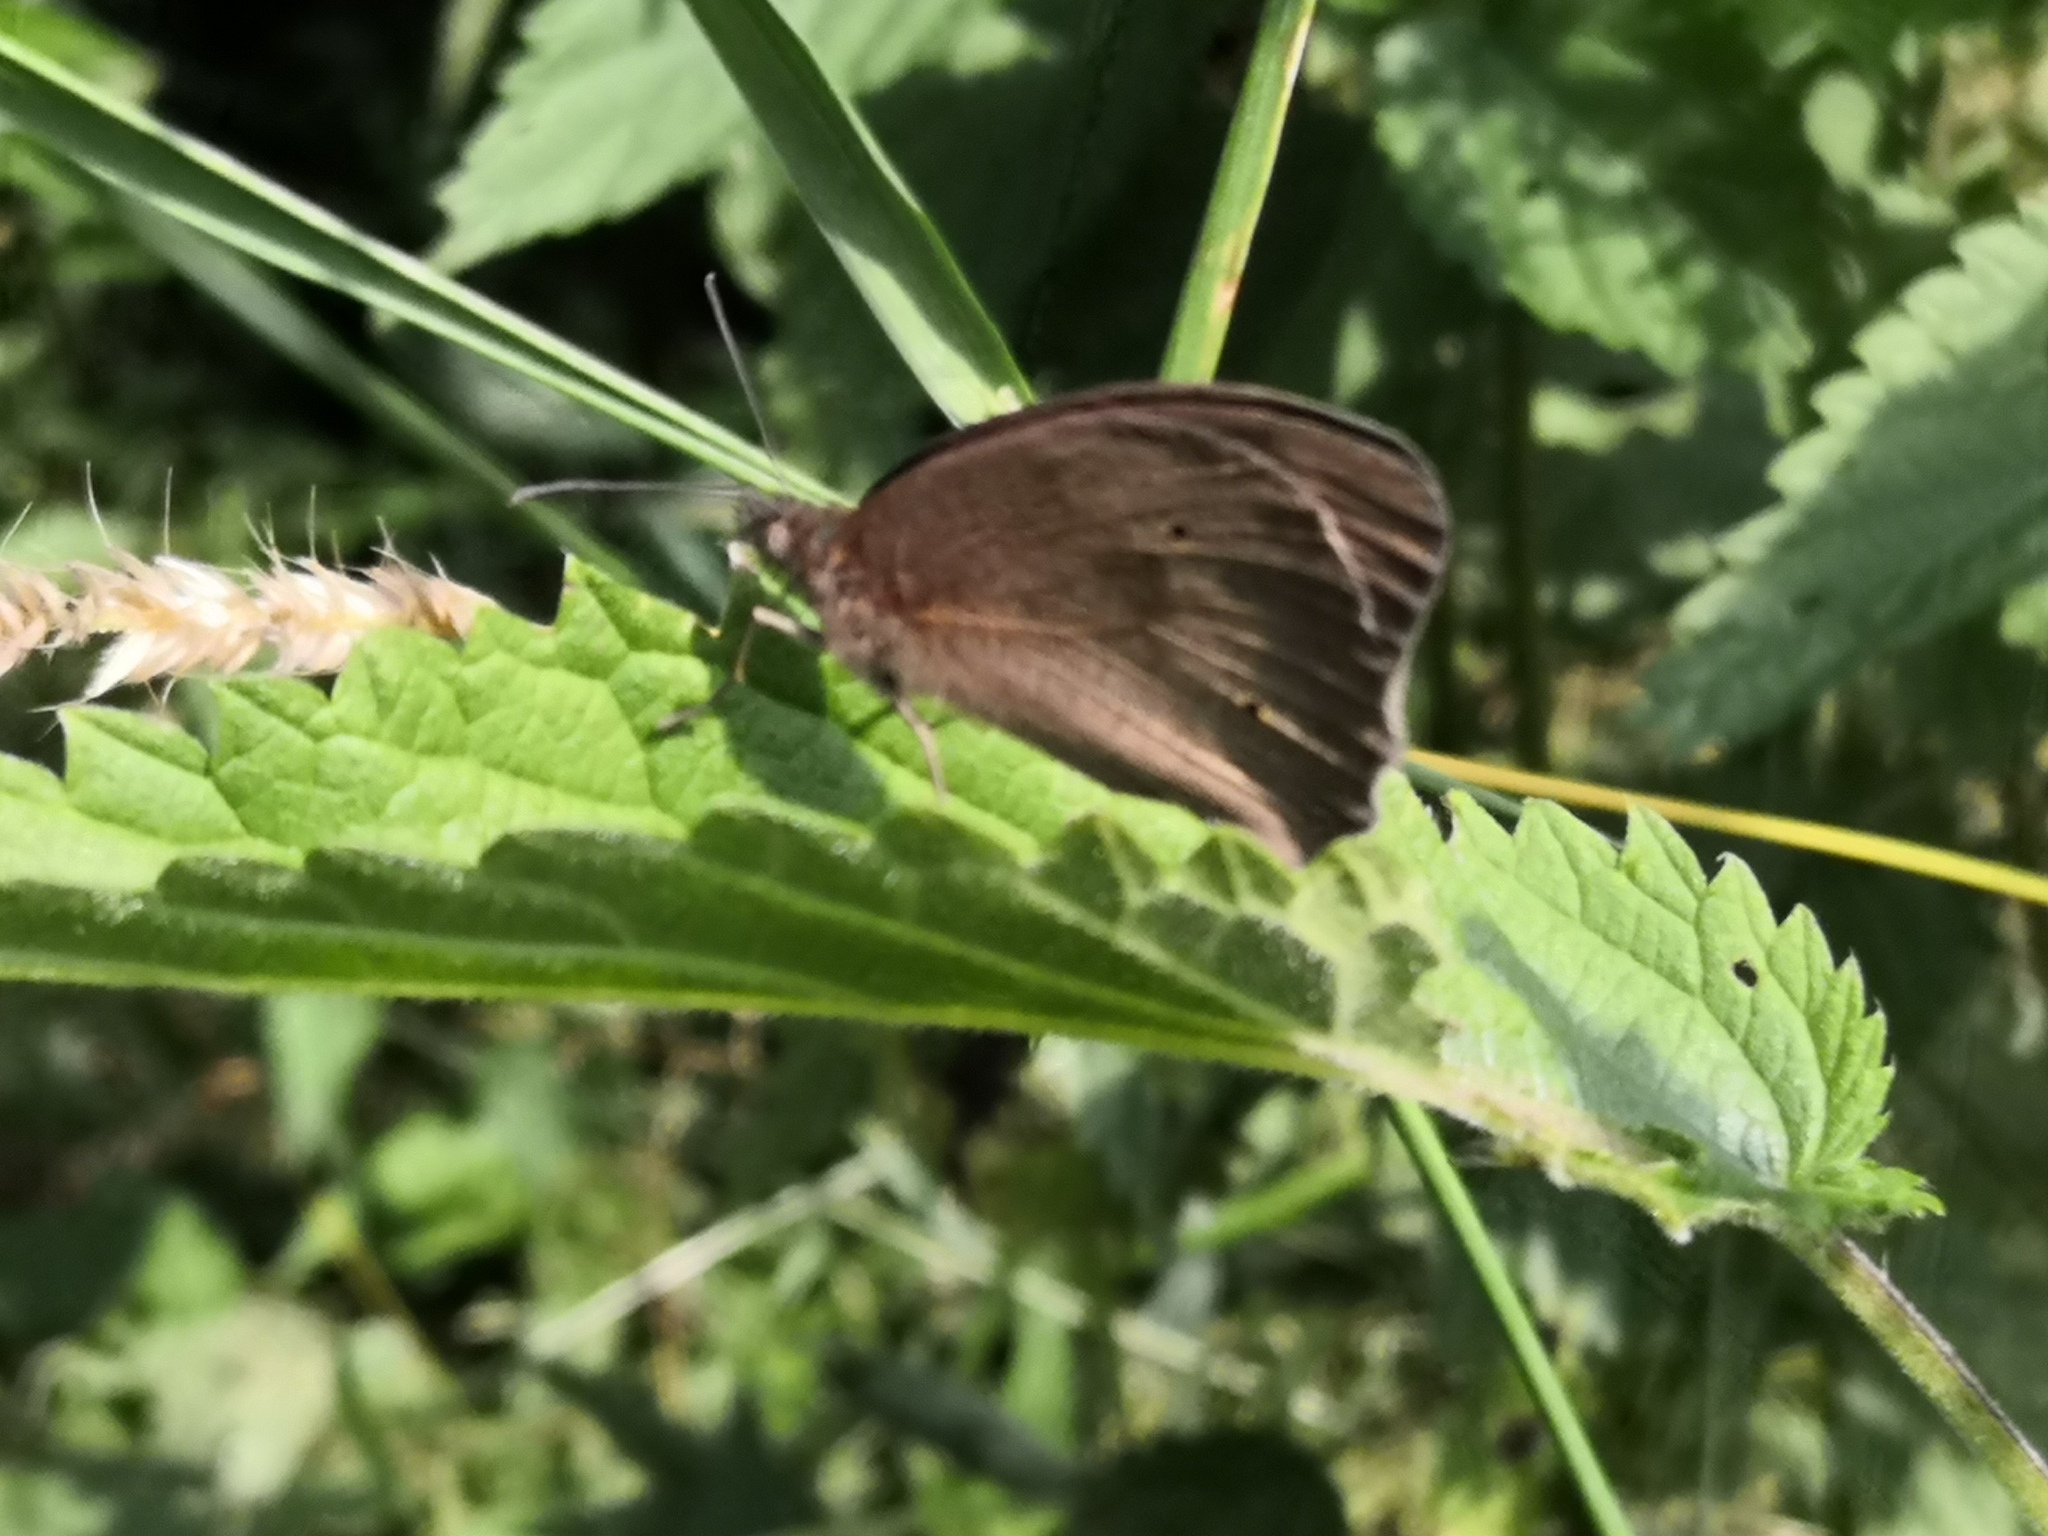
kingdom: Animalia
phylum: Arthropoda
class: Insecta
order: Lepidoptera
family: Nymphalidae
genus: Maniola
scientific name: Maniola jurtina
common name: Meadow brown
